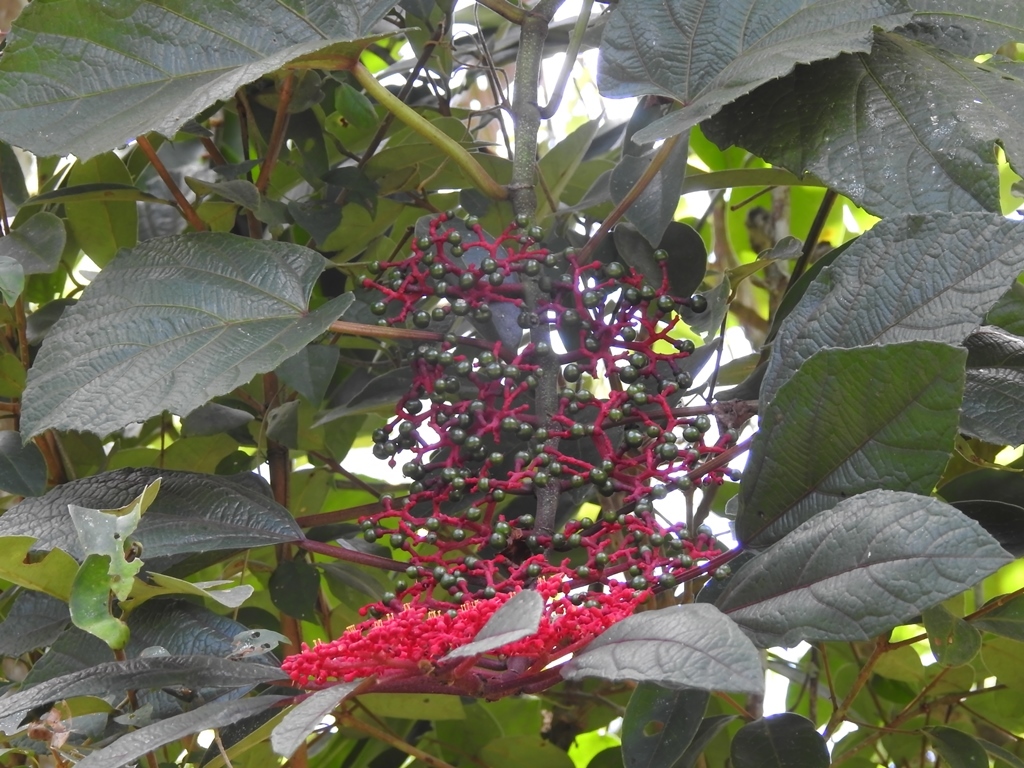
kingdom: Plantae
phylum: Tracheophyta
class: Magnoliopsida
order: Vitales
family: Vitaceae
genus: Cissus
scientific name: Cissus biformifolia
